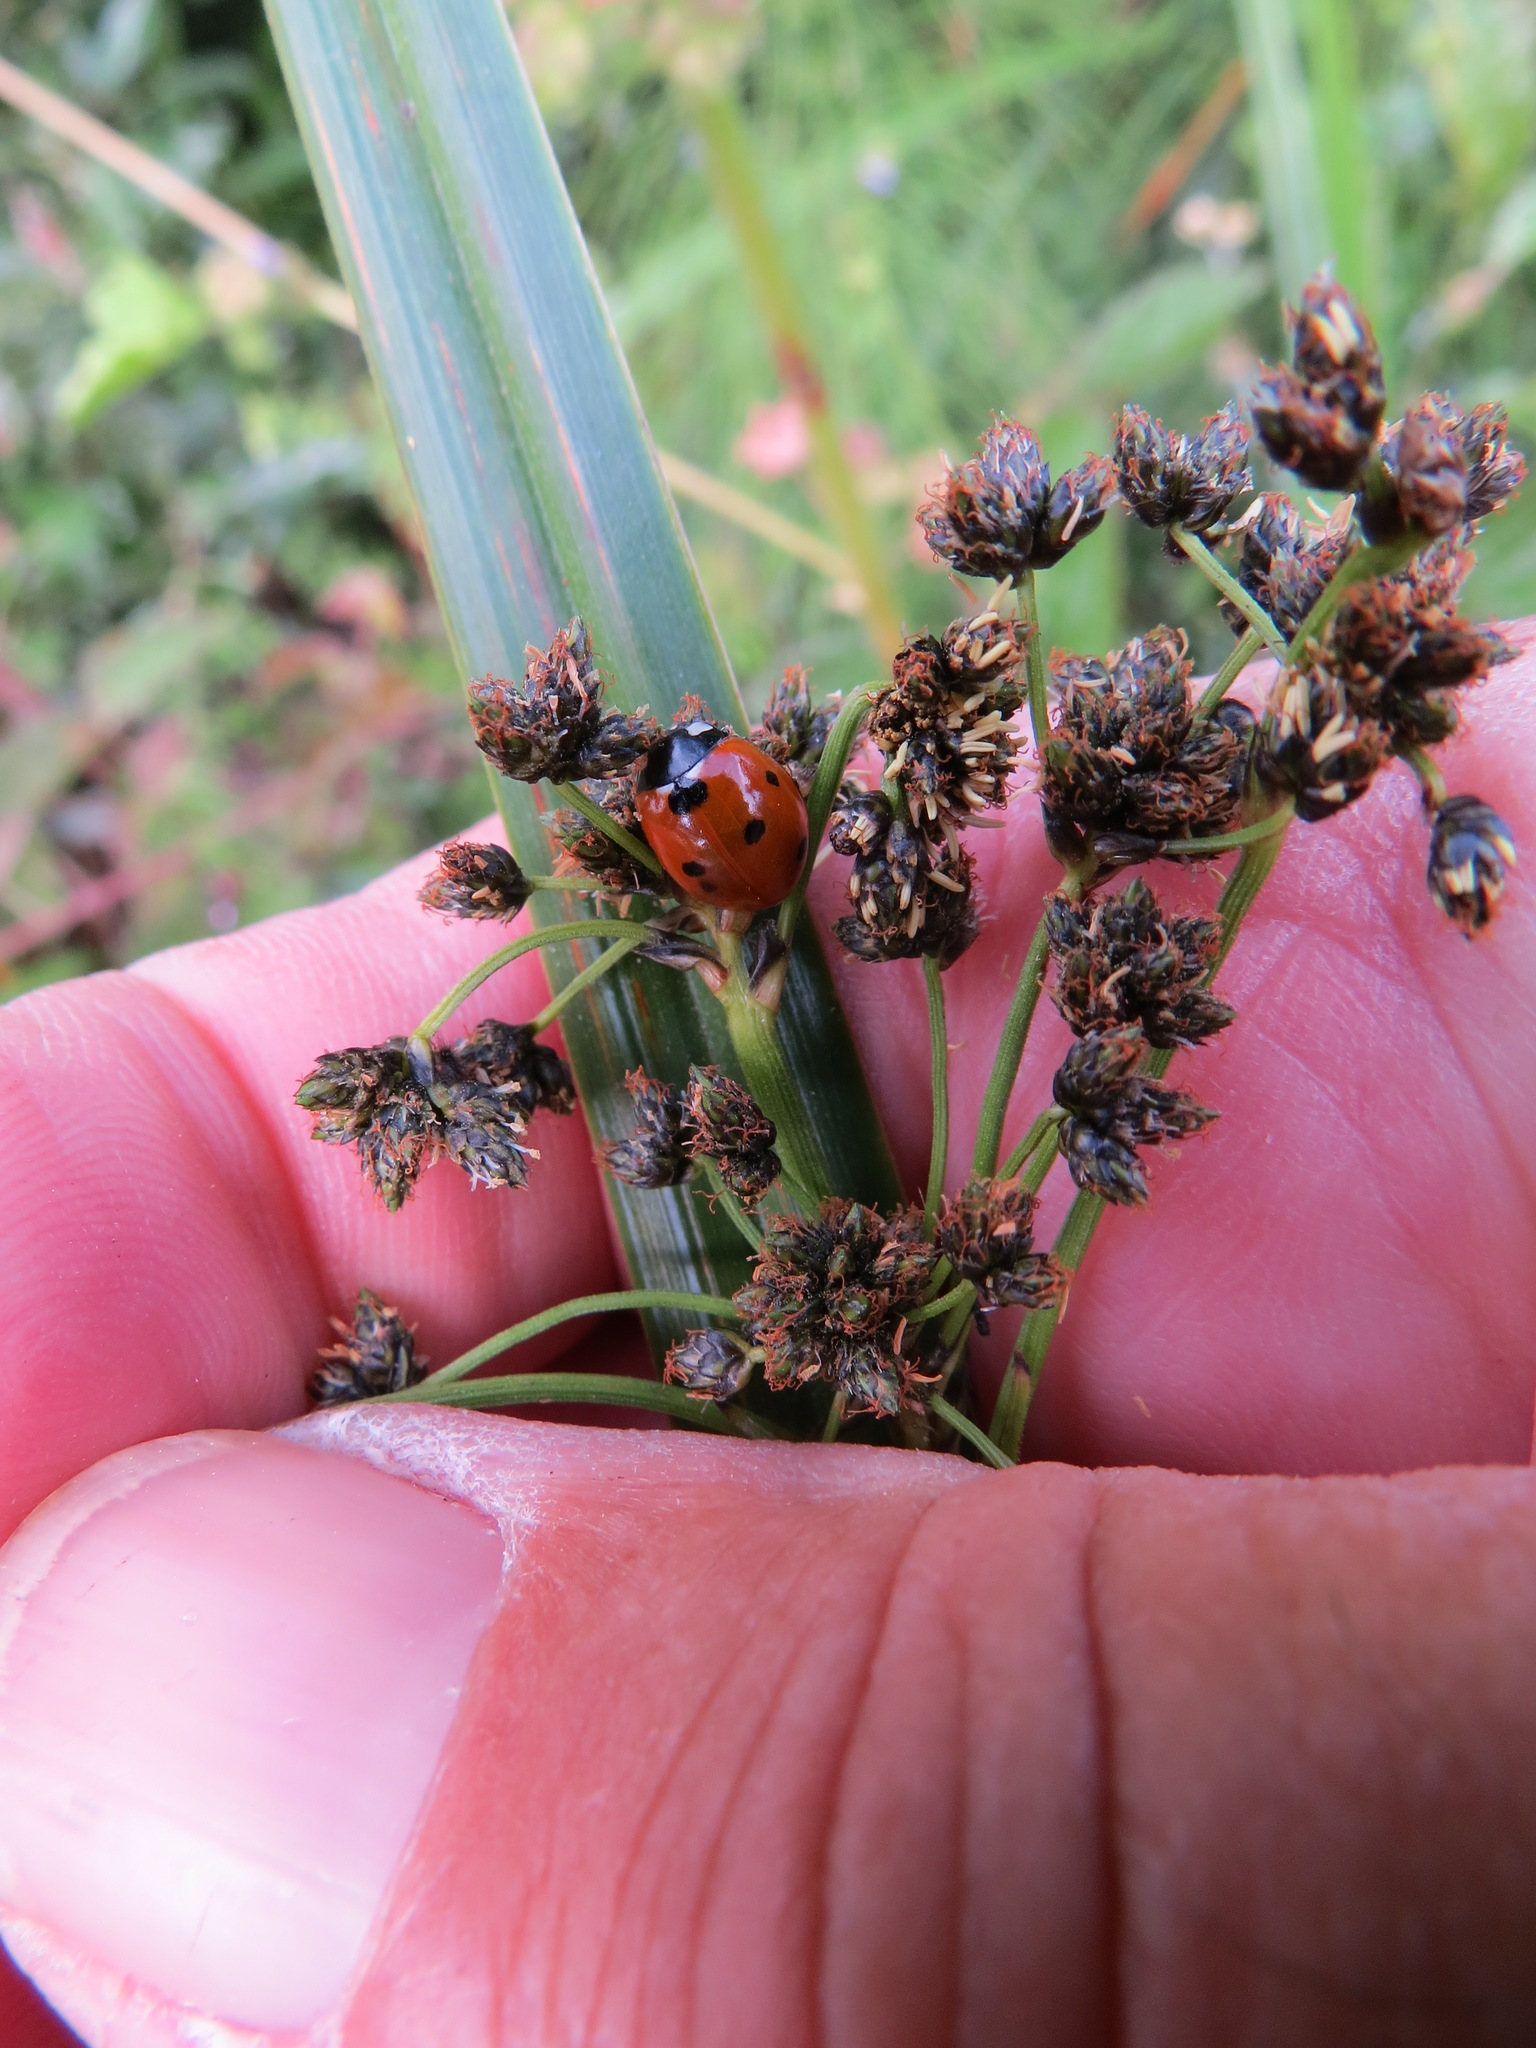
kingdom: Animalia
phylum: Arthropoda
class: Insecta
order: Coleoptera
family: Coccinellidae
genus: Coccinella
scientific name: Coccinella septempunctata
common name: Sevenspotted lady beetle
